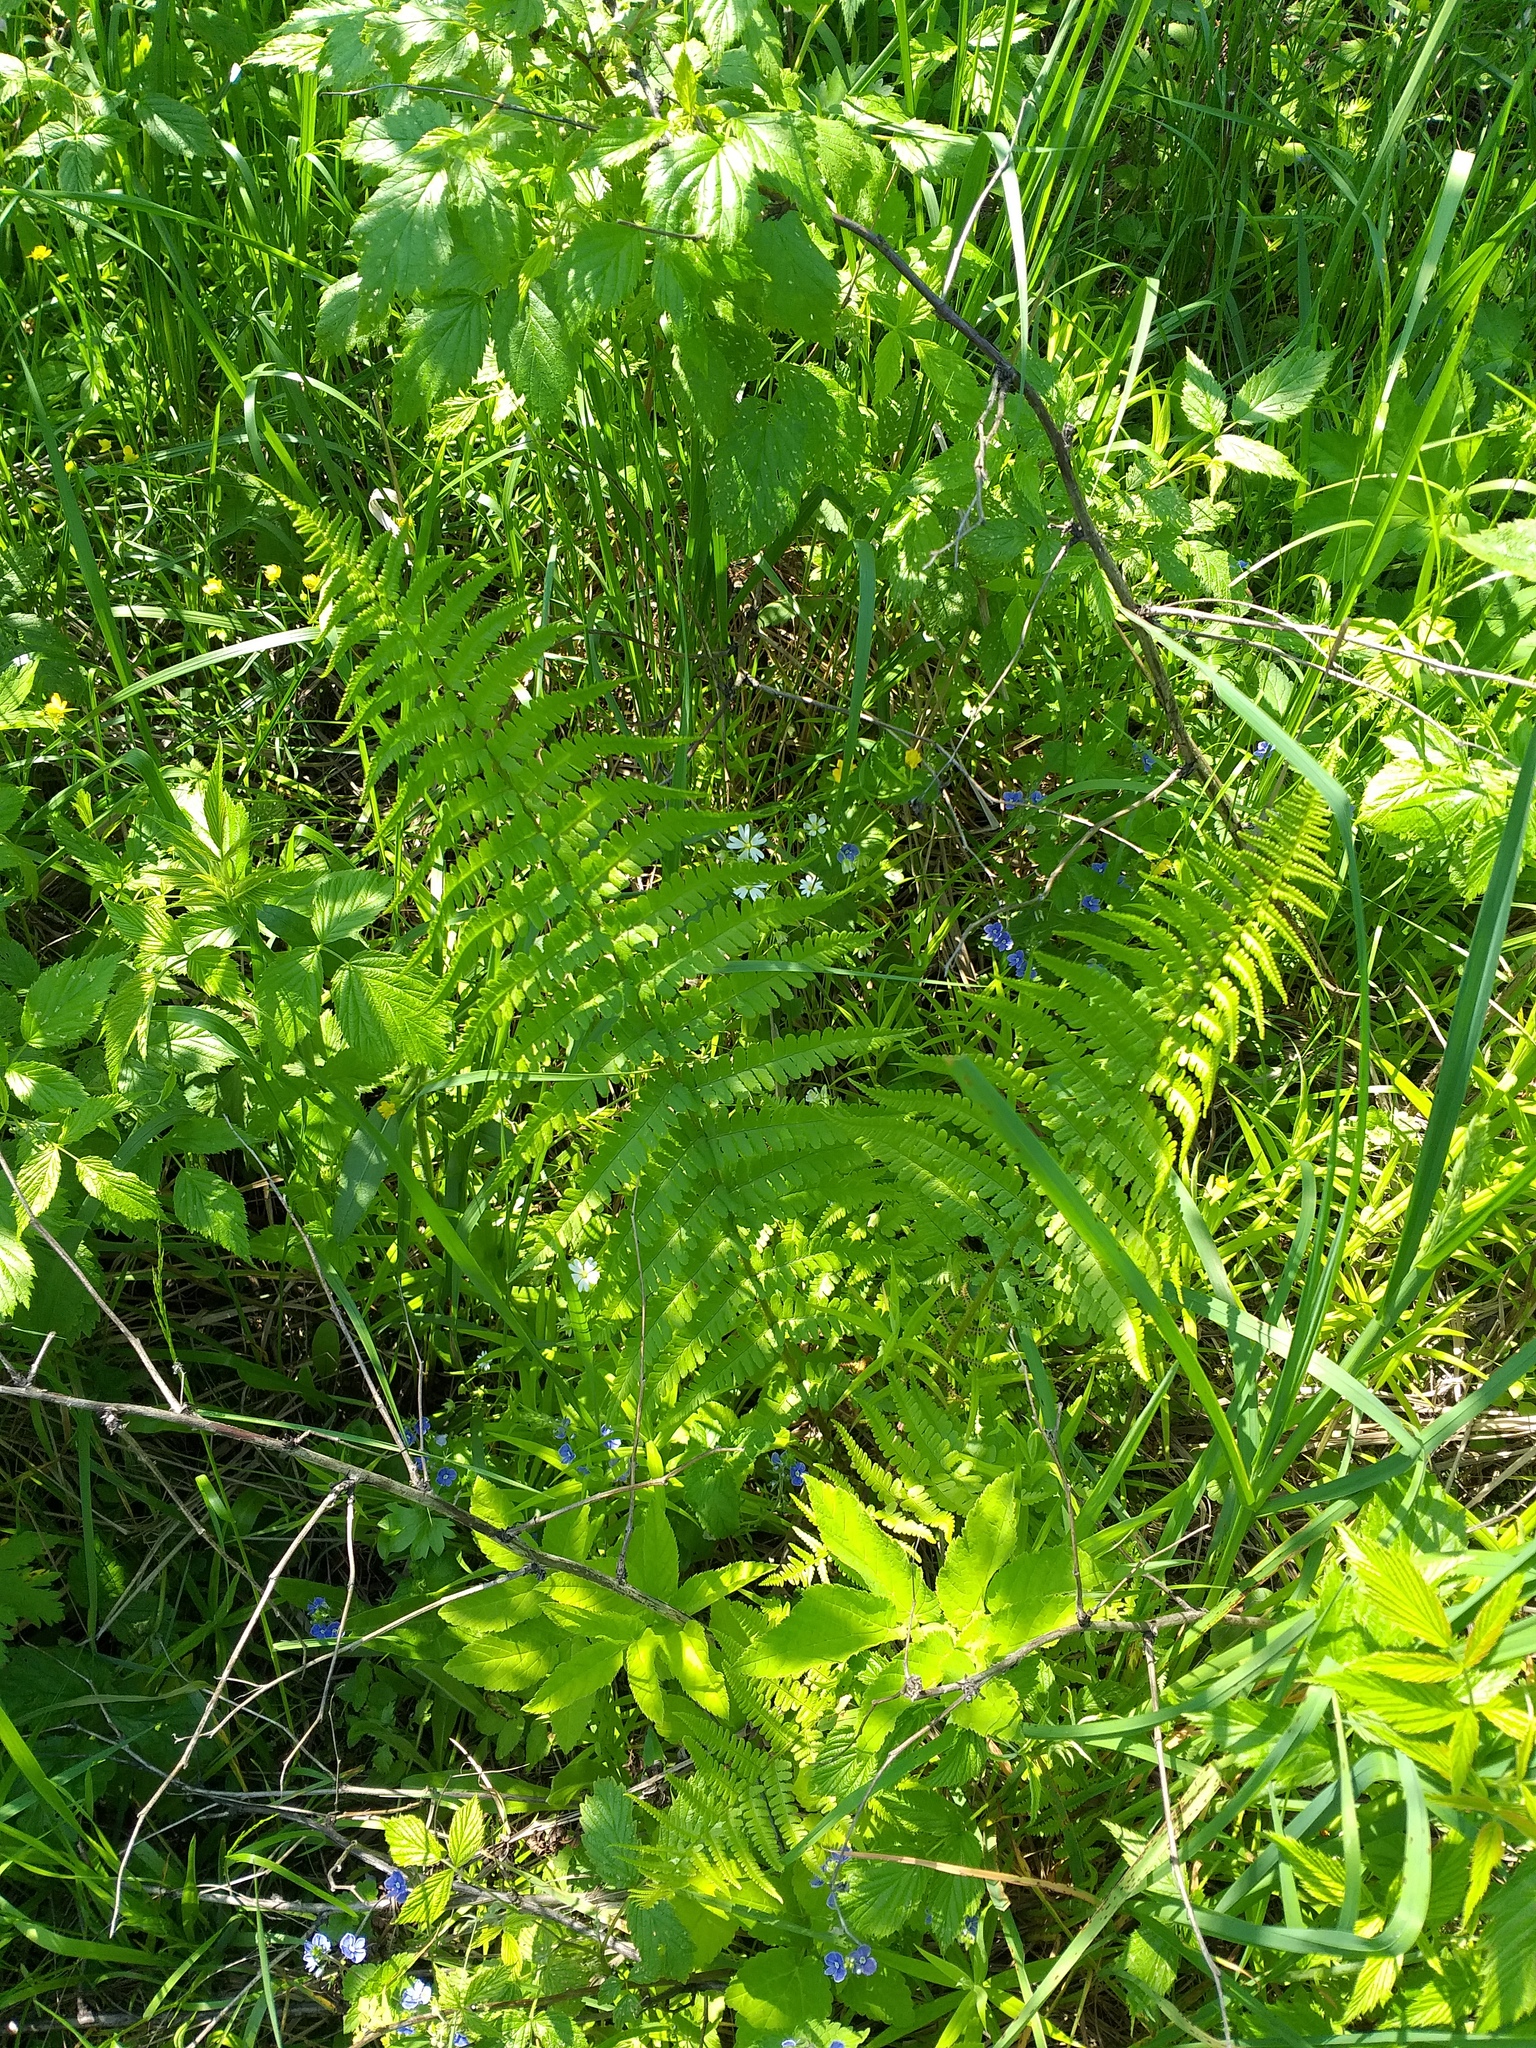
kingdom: Plantae
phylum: Tracheophyta
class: Polypodiopsida
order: Polypodiales
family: Dryopteridaceae
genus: Dryopteris
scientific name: Dryopteris filix-mas
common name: Male fern
